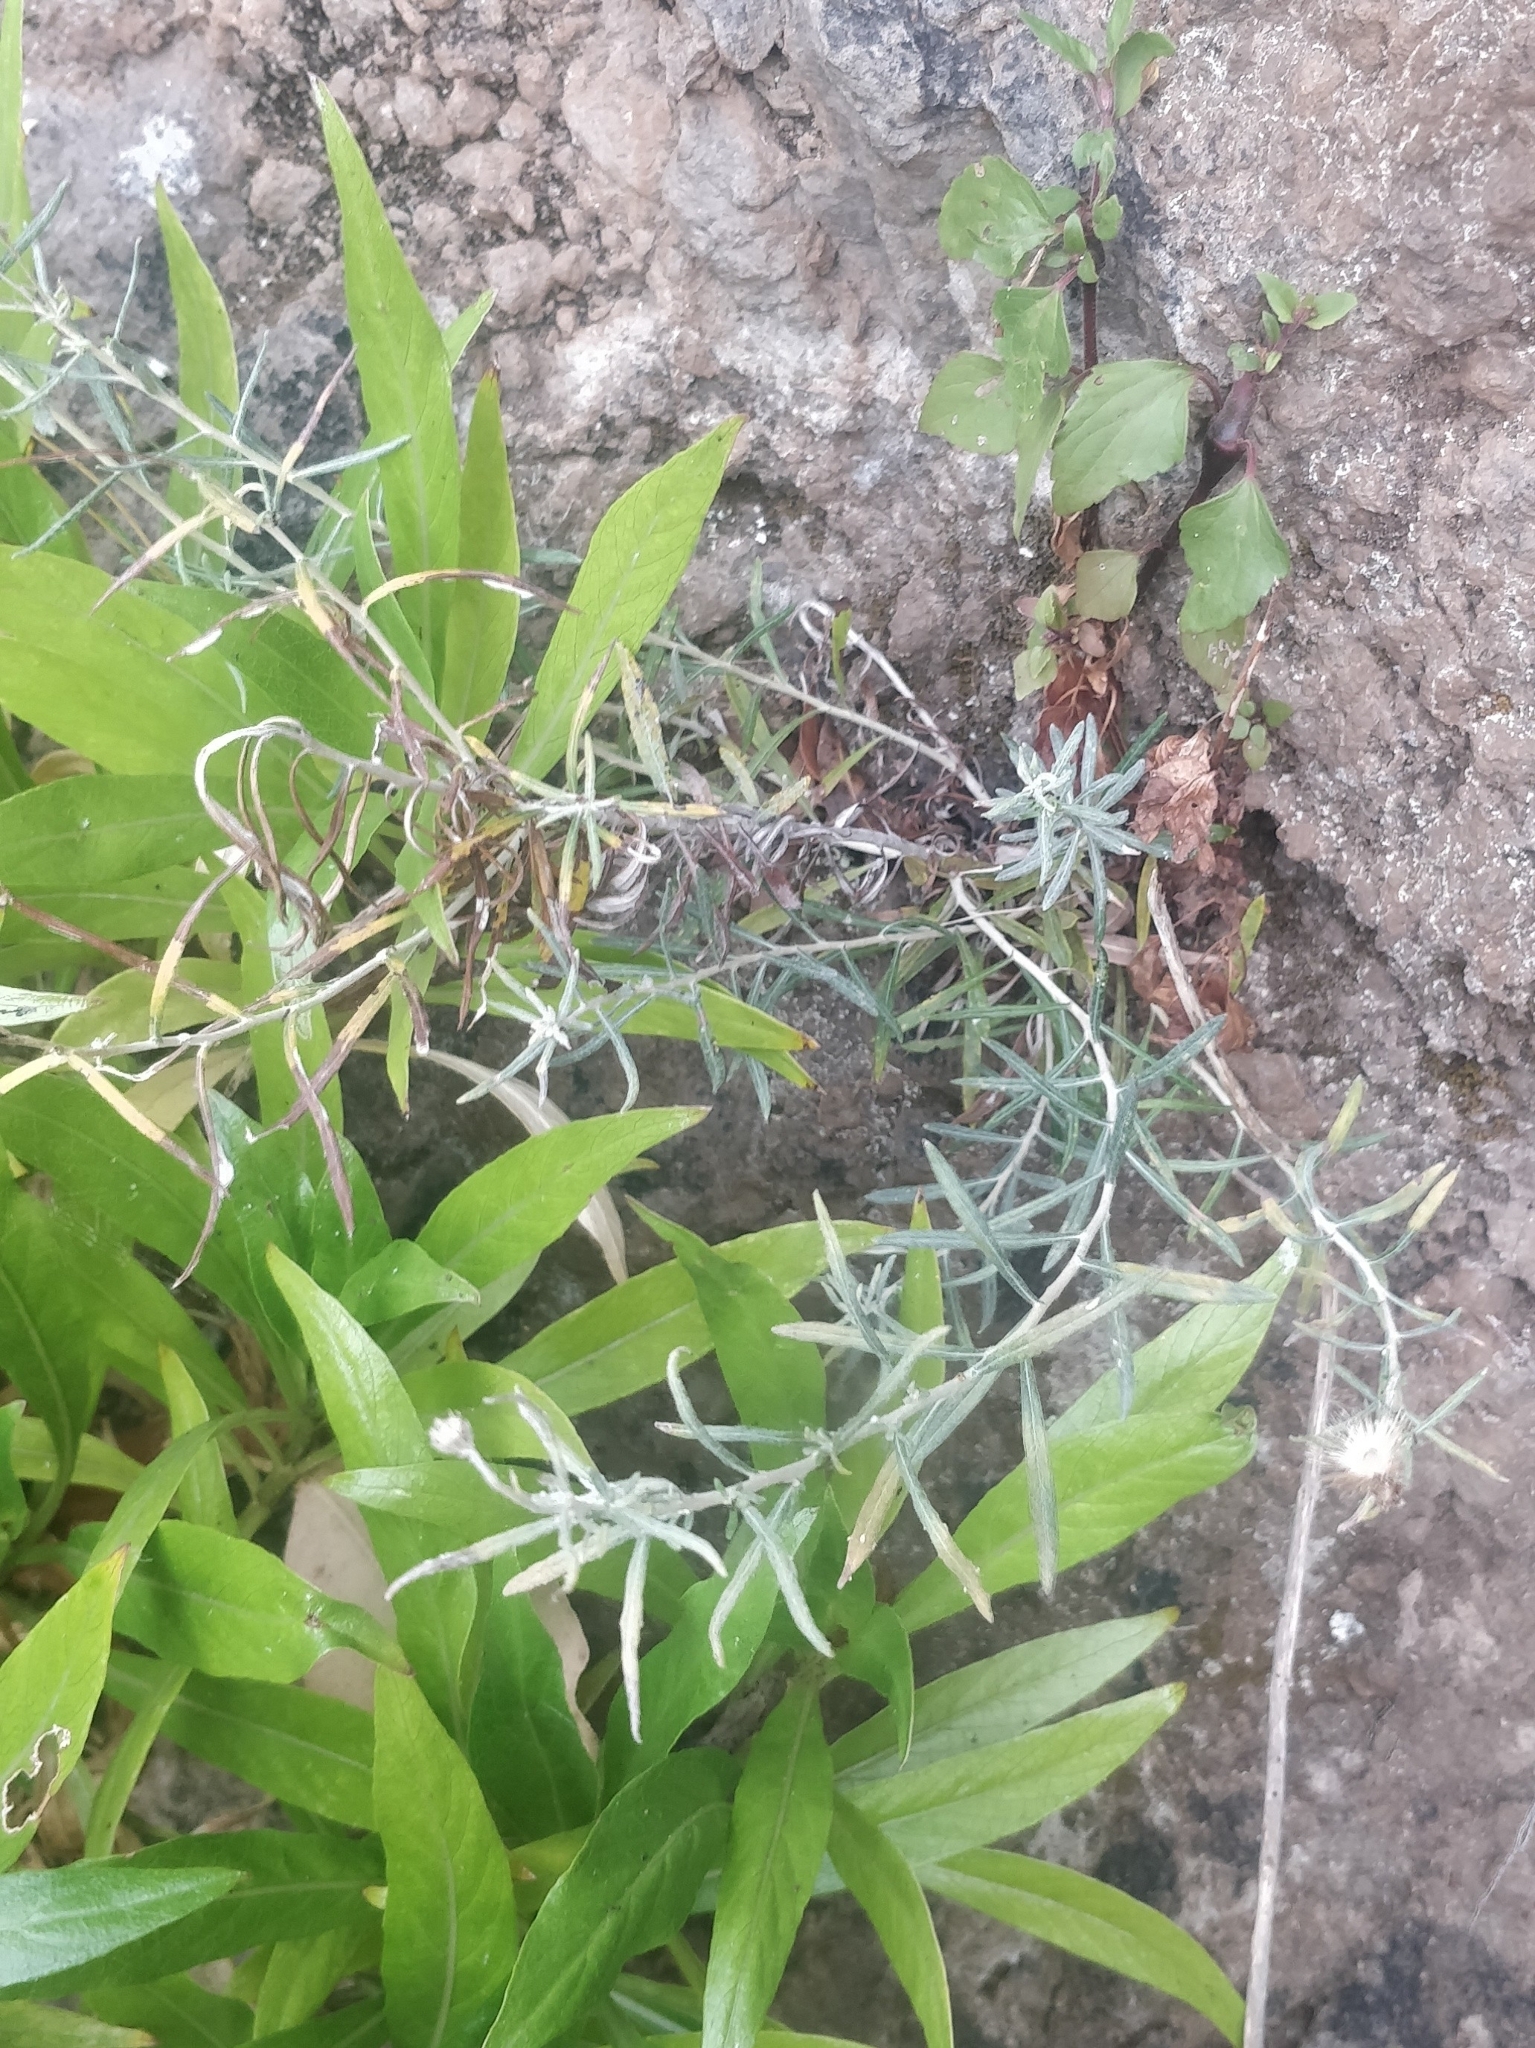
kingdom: Plantae
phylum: Tracheophyta
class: Magnoliopsida
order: Asterales
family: Asteraceae
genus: Phagnalon
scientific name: Phagnalon saxatile
